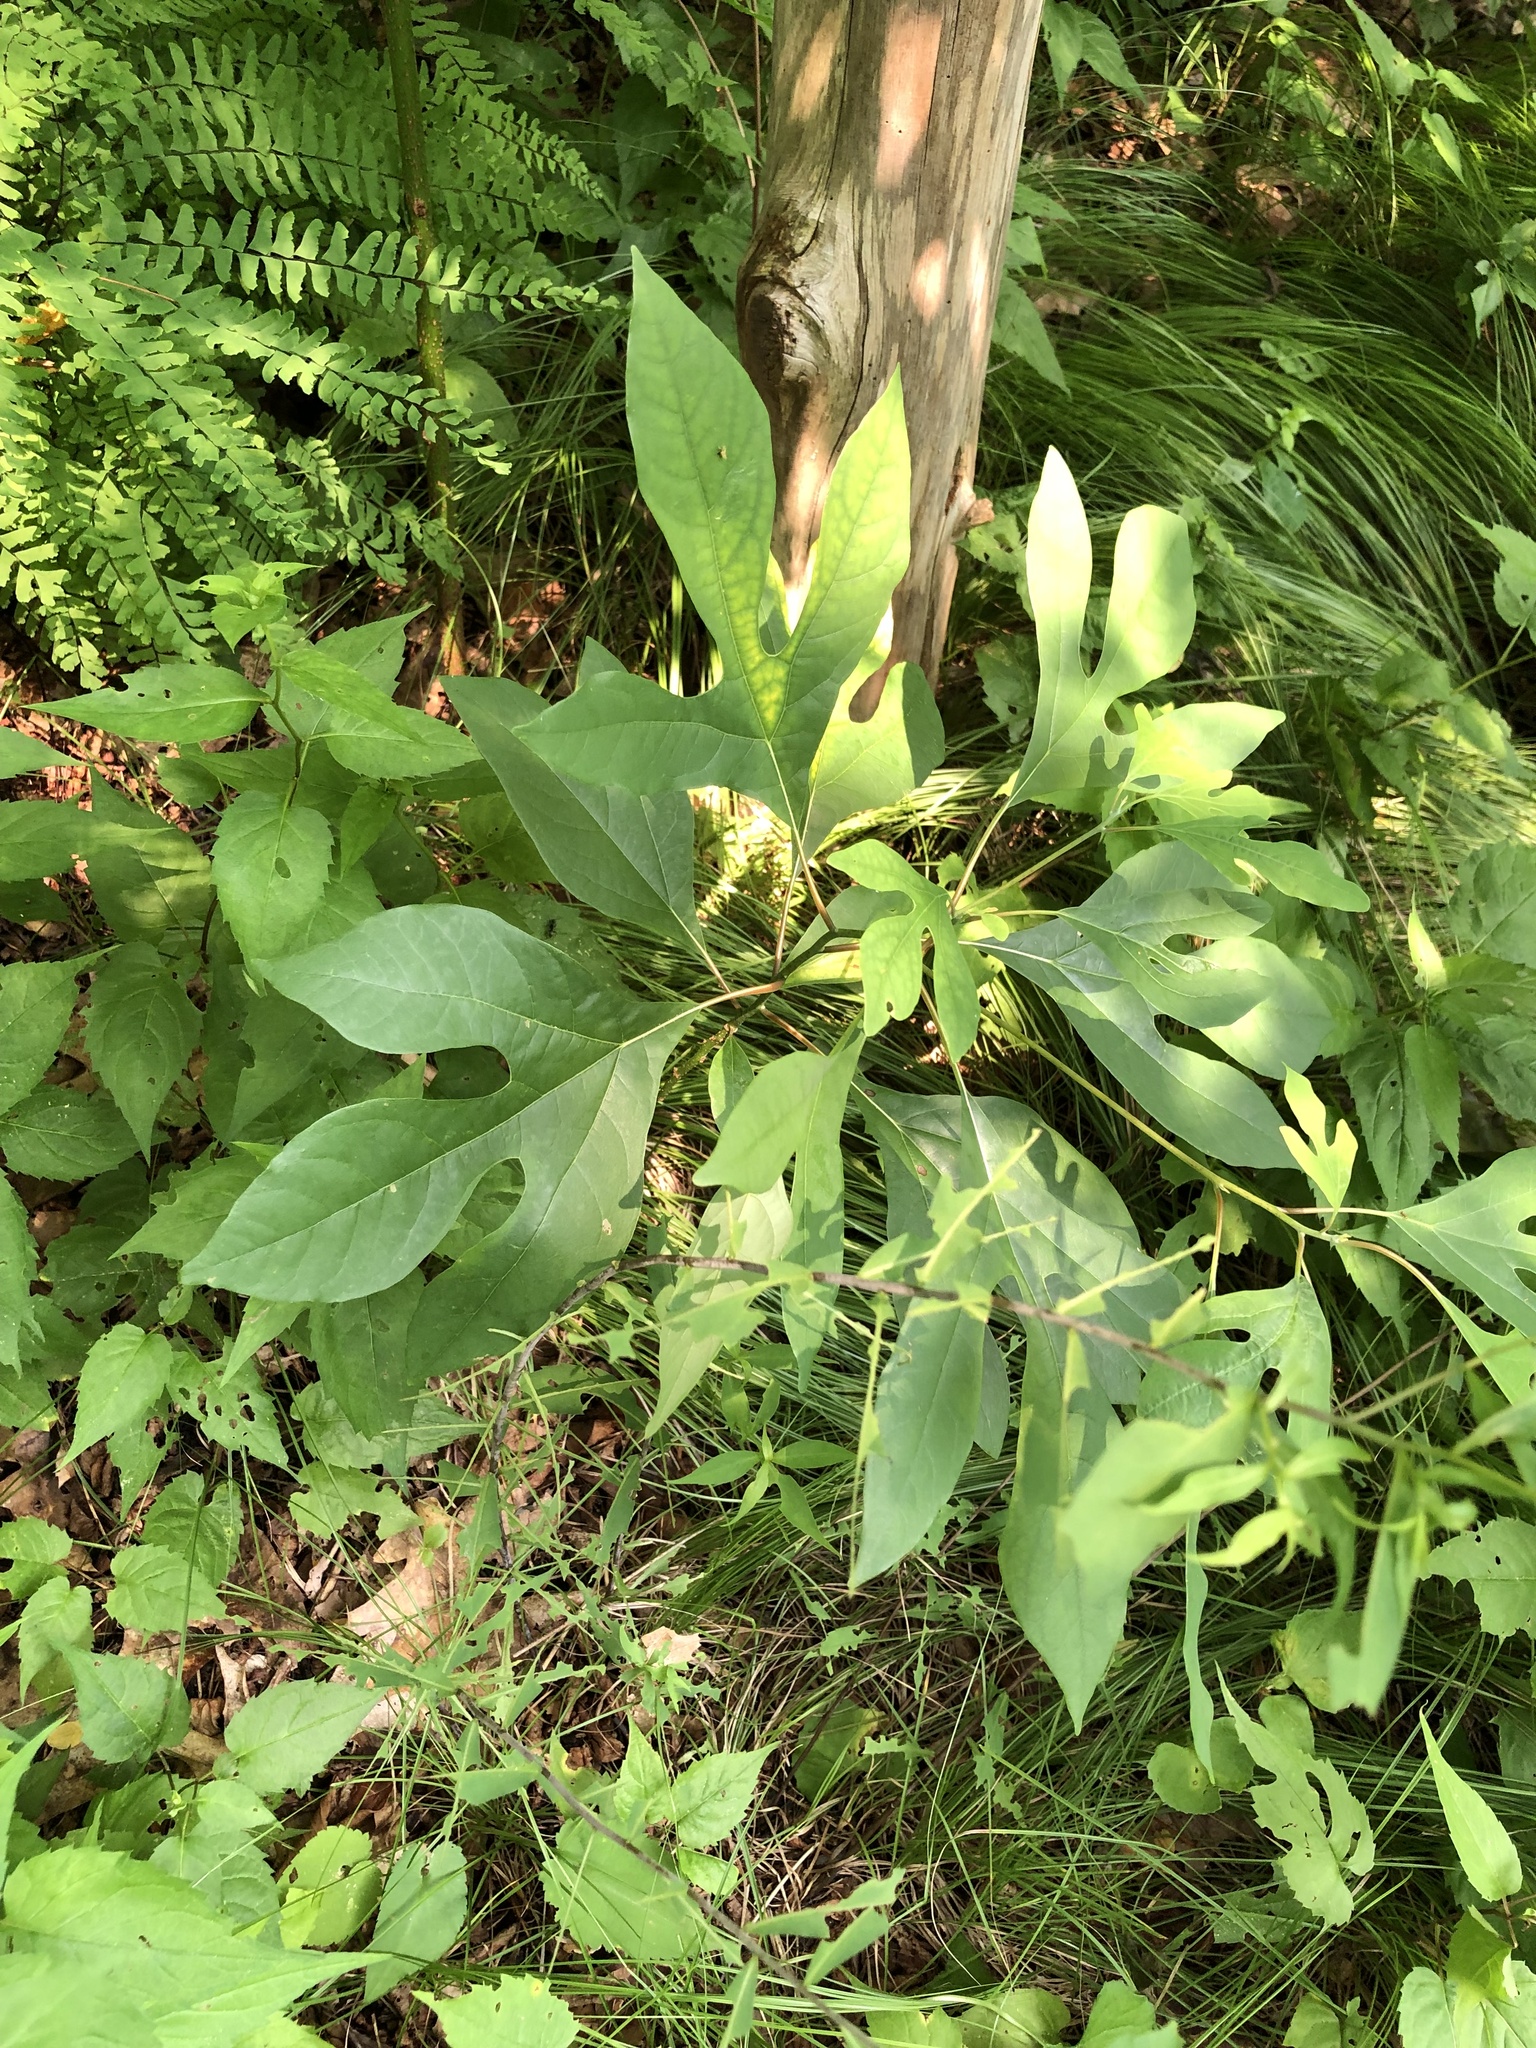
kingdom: Plantae
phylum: Tracheophyta
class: Magnoliopsida
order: Laurales
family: Lauraceae
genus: Sassafras
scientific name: Sassafras albidum
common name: Sassafras
